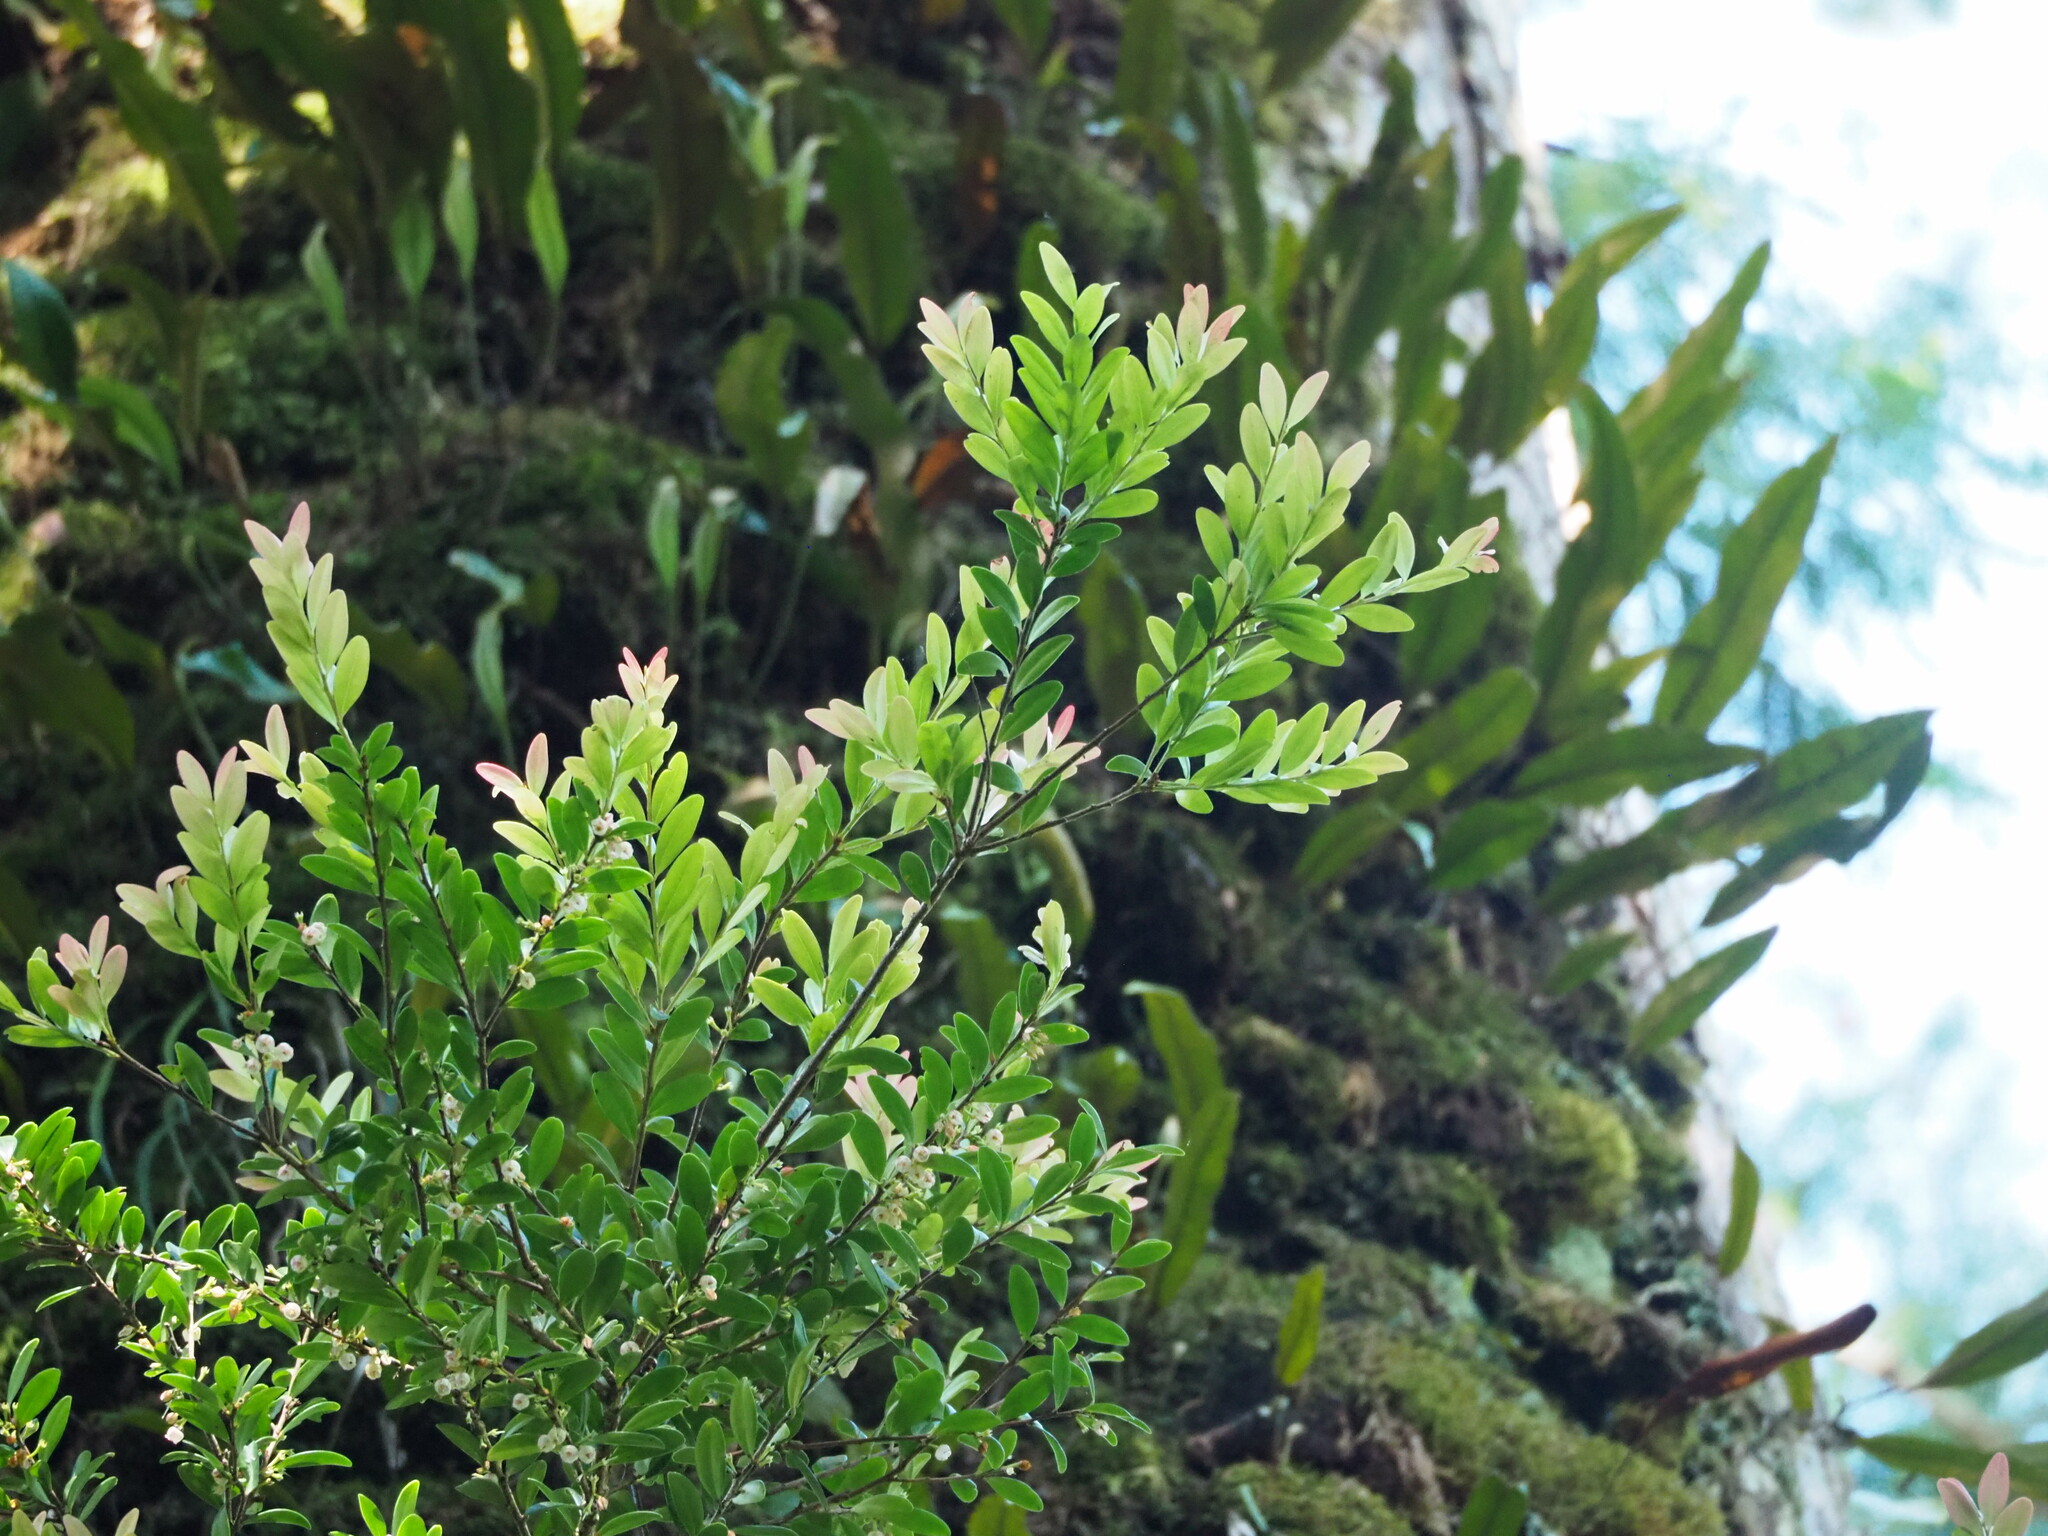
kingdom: Plantae
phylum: Tracheophyta
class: Magnoliopsida
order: Ericales
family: Ericaceae
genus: Vaccinium
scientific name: Vaccinium emarginatum
